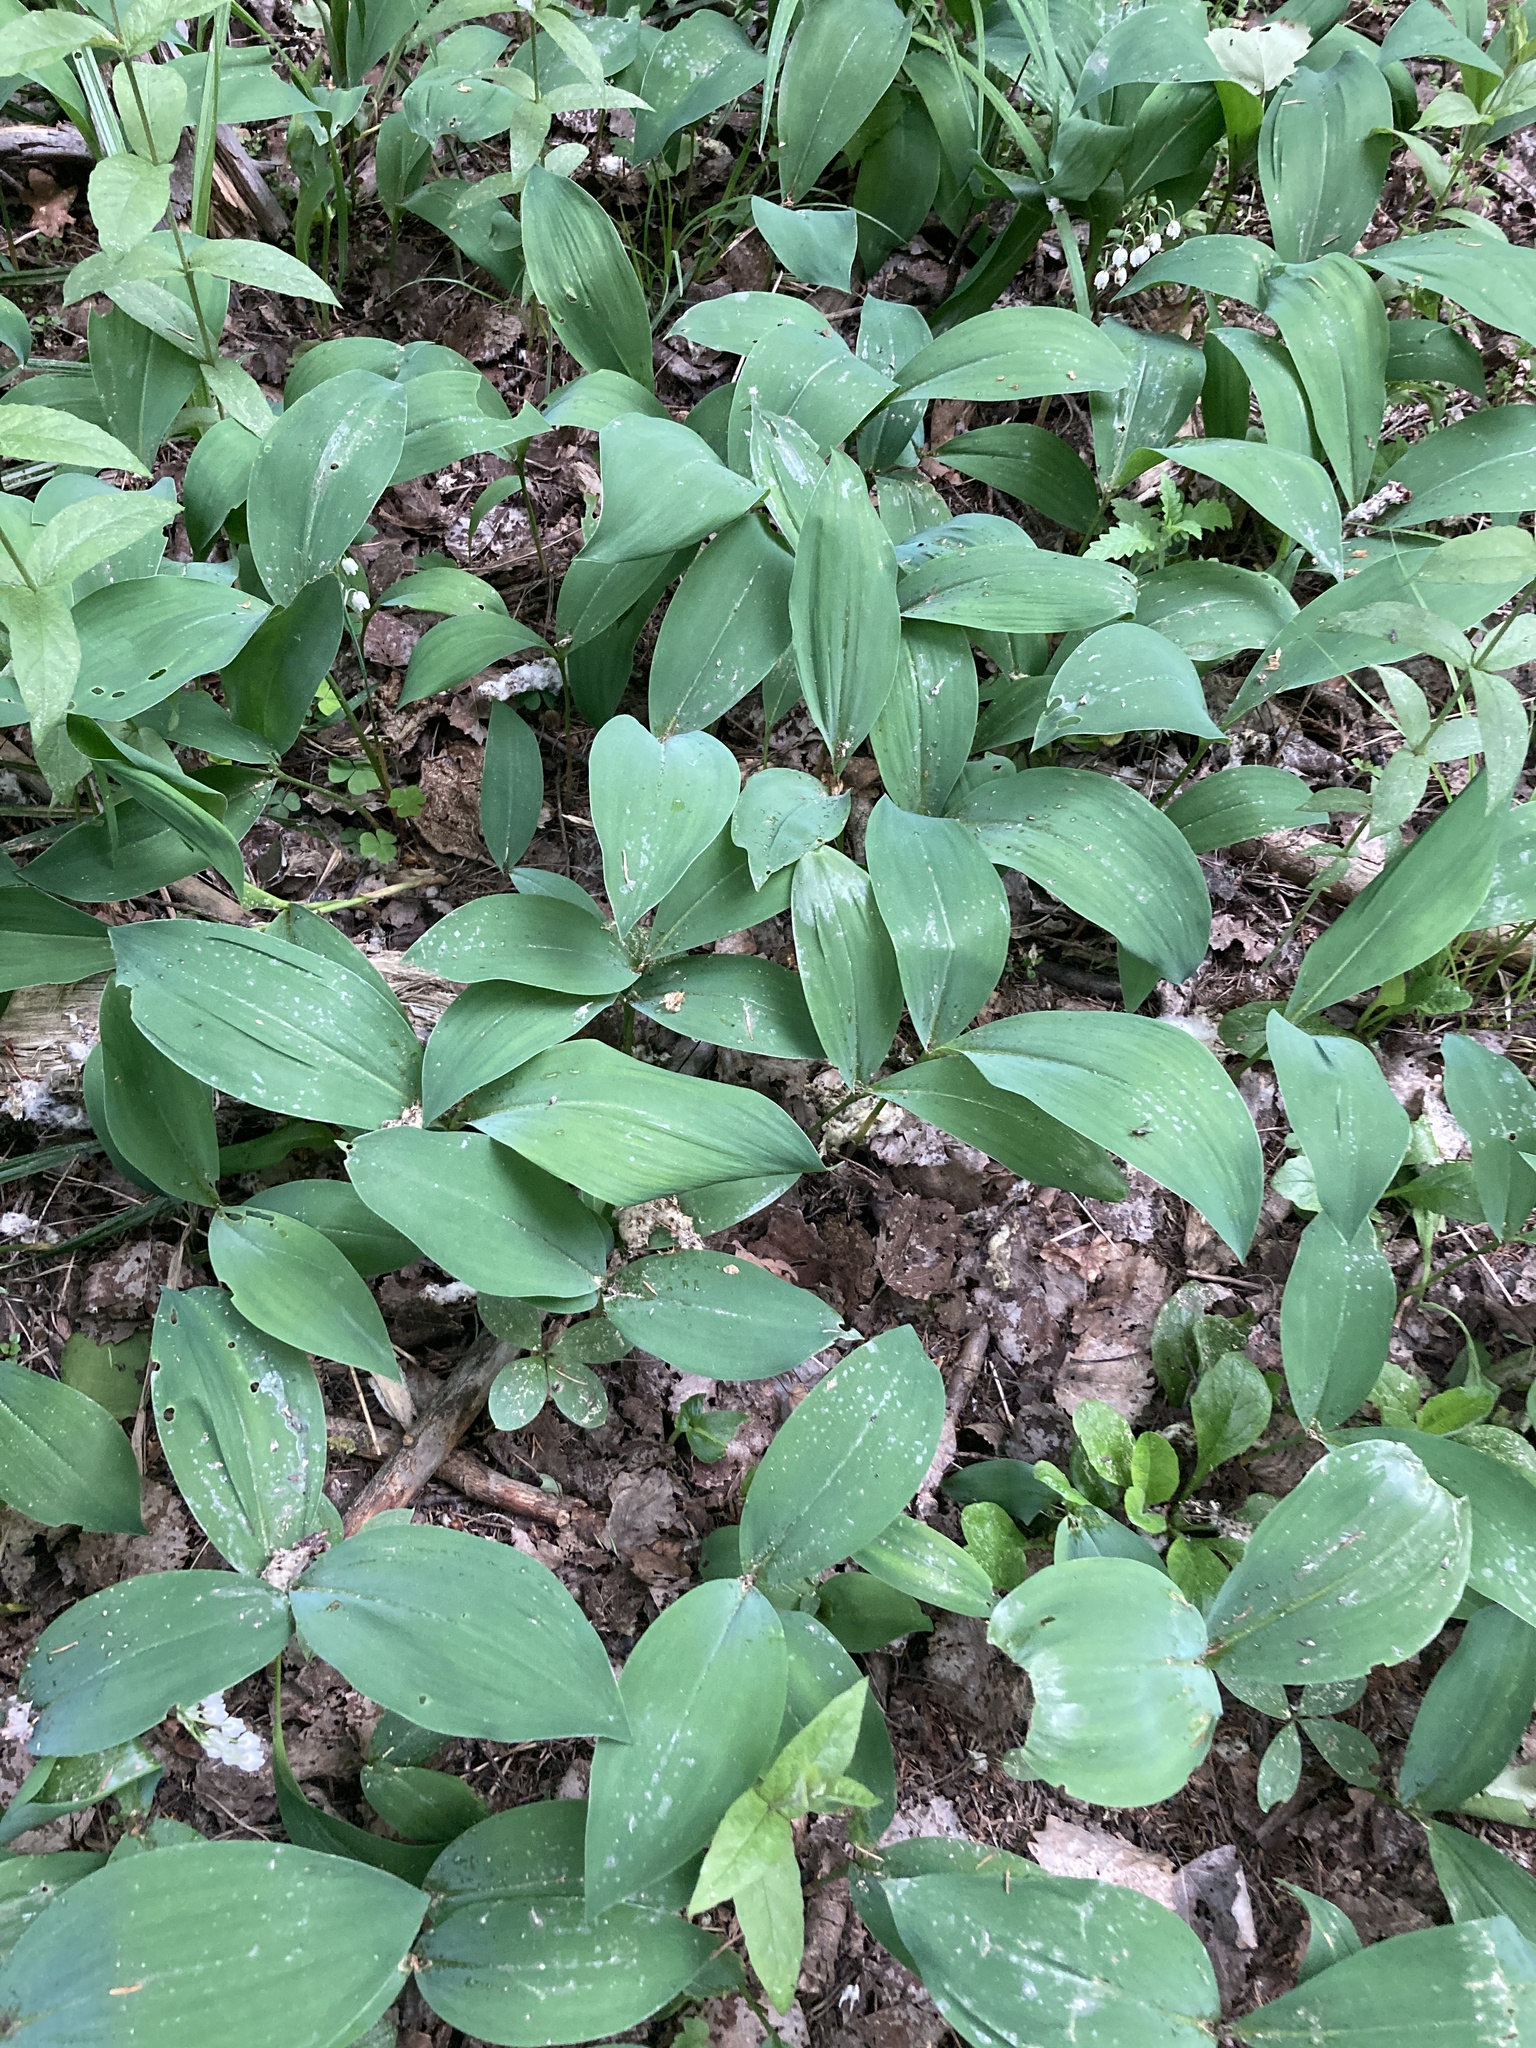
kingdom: Plantae
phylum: Tracheophyta
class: Liliopsida
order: Asparagales
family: Asparagaceae
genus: Convallaria
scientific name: Convallaria majalis
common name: Lily-of-the-valley
